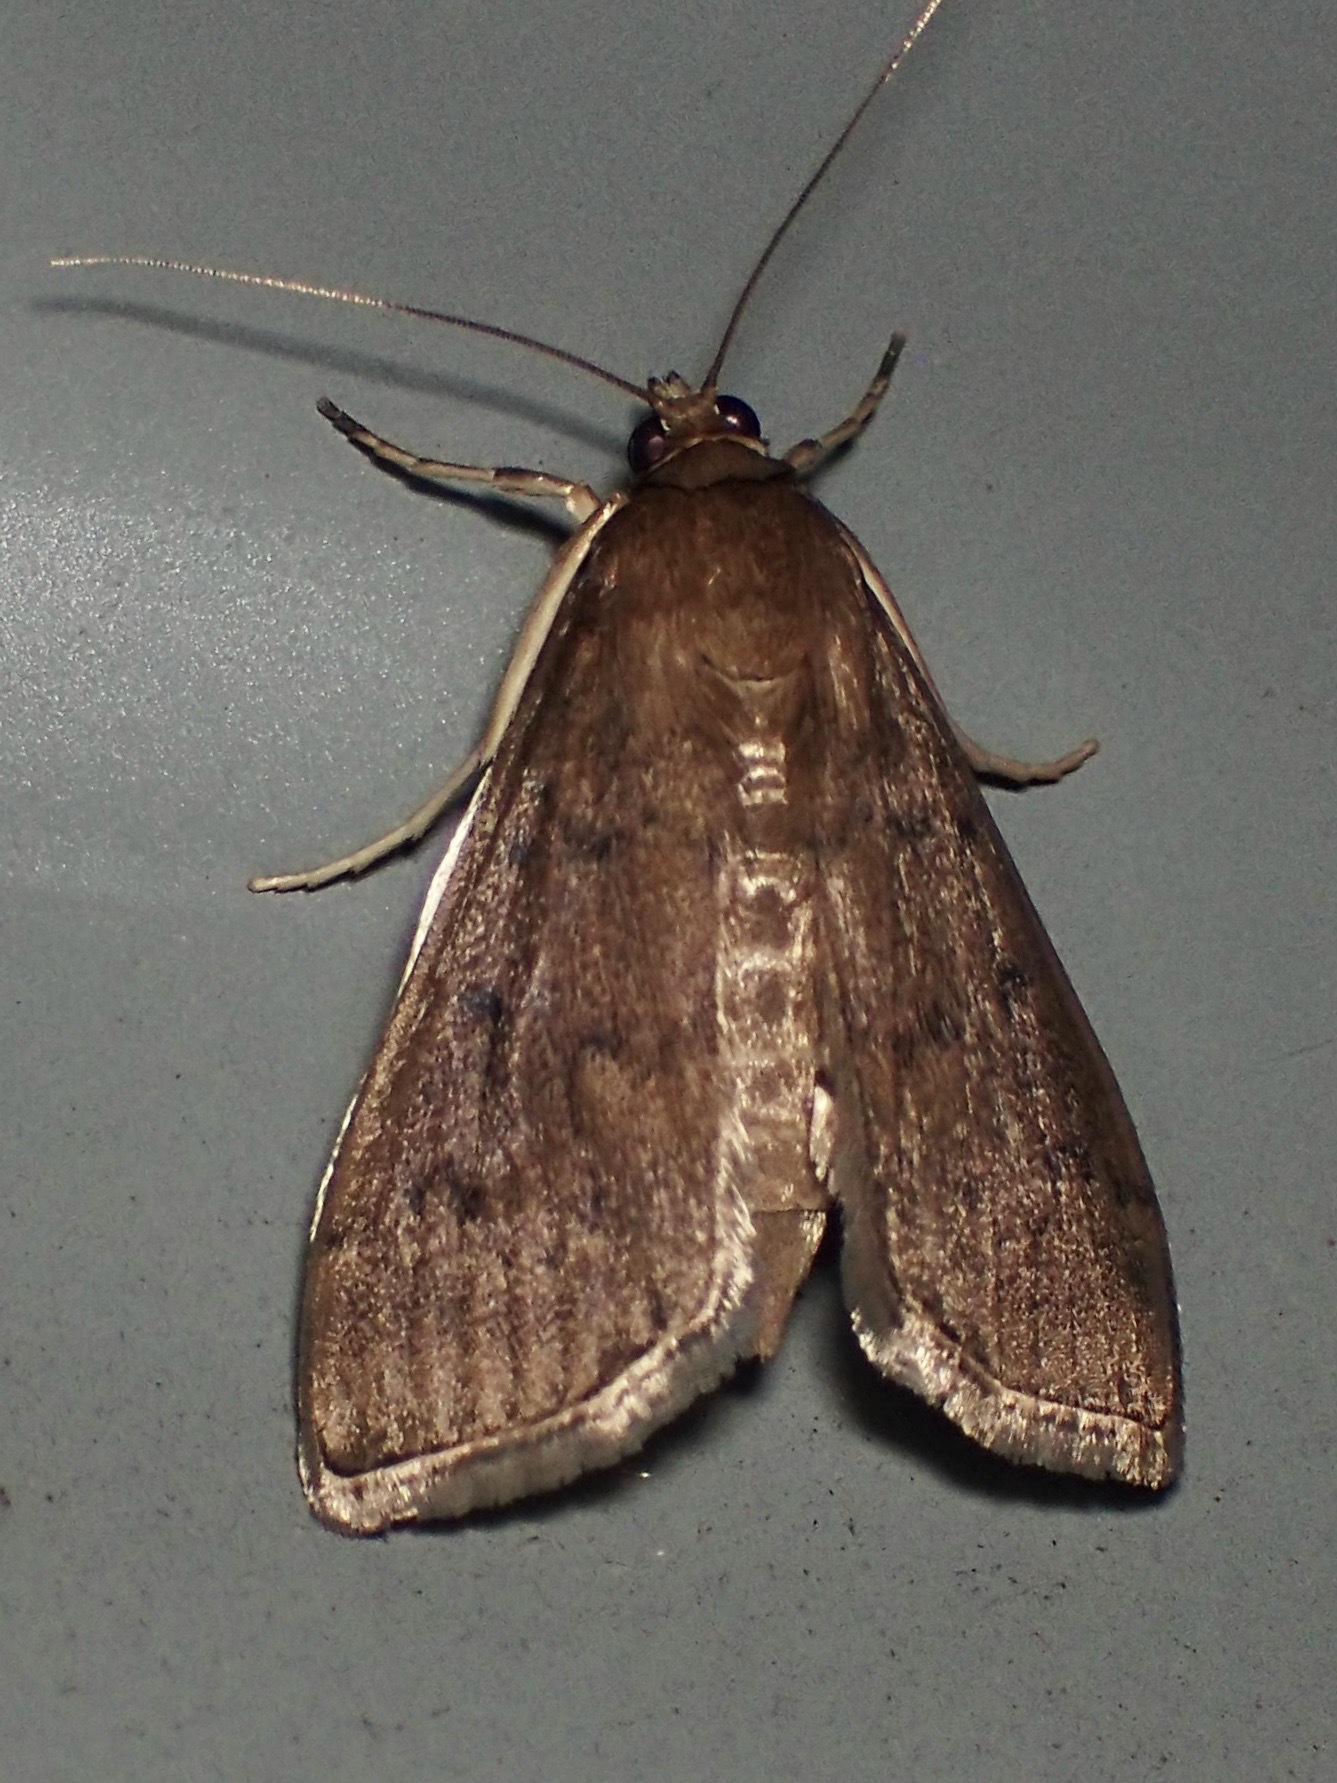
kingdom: Animalia
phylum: Arthropoda
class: Insecta
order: Lepidoptera
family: Crambidae
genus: Herpetogramma
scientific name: Herpetogramma licarsisalis
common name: Grass webworm
